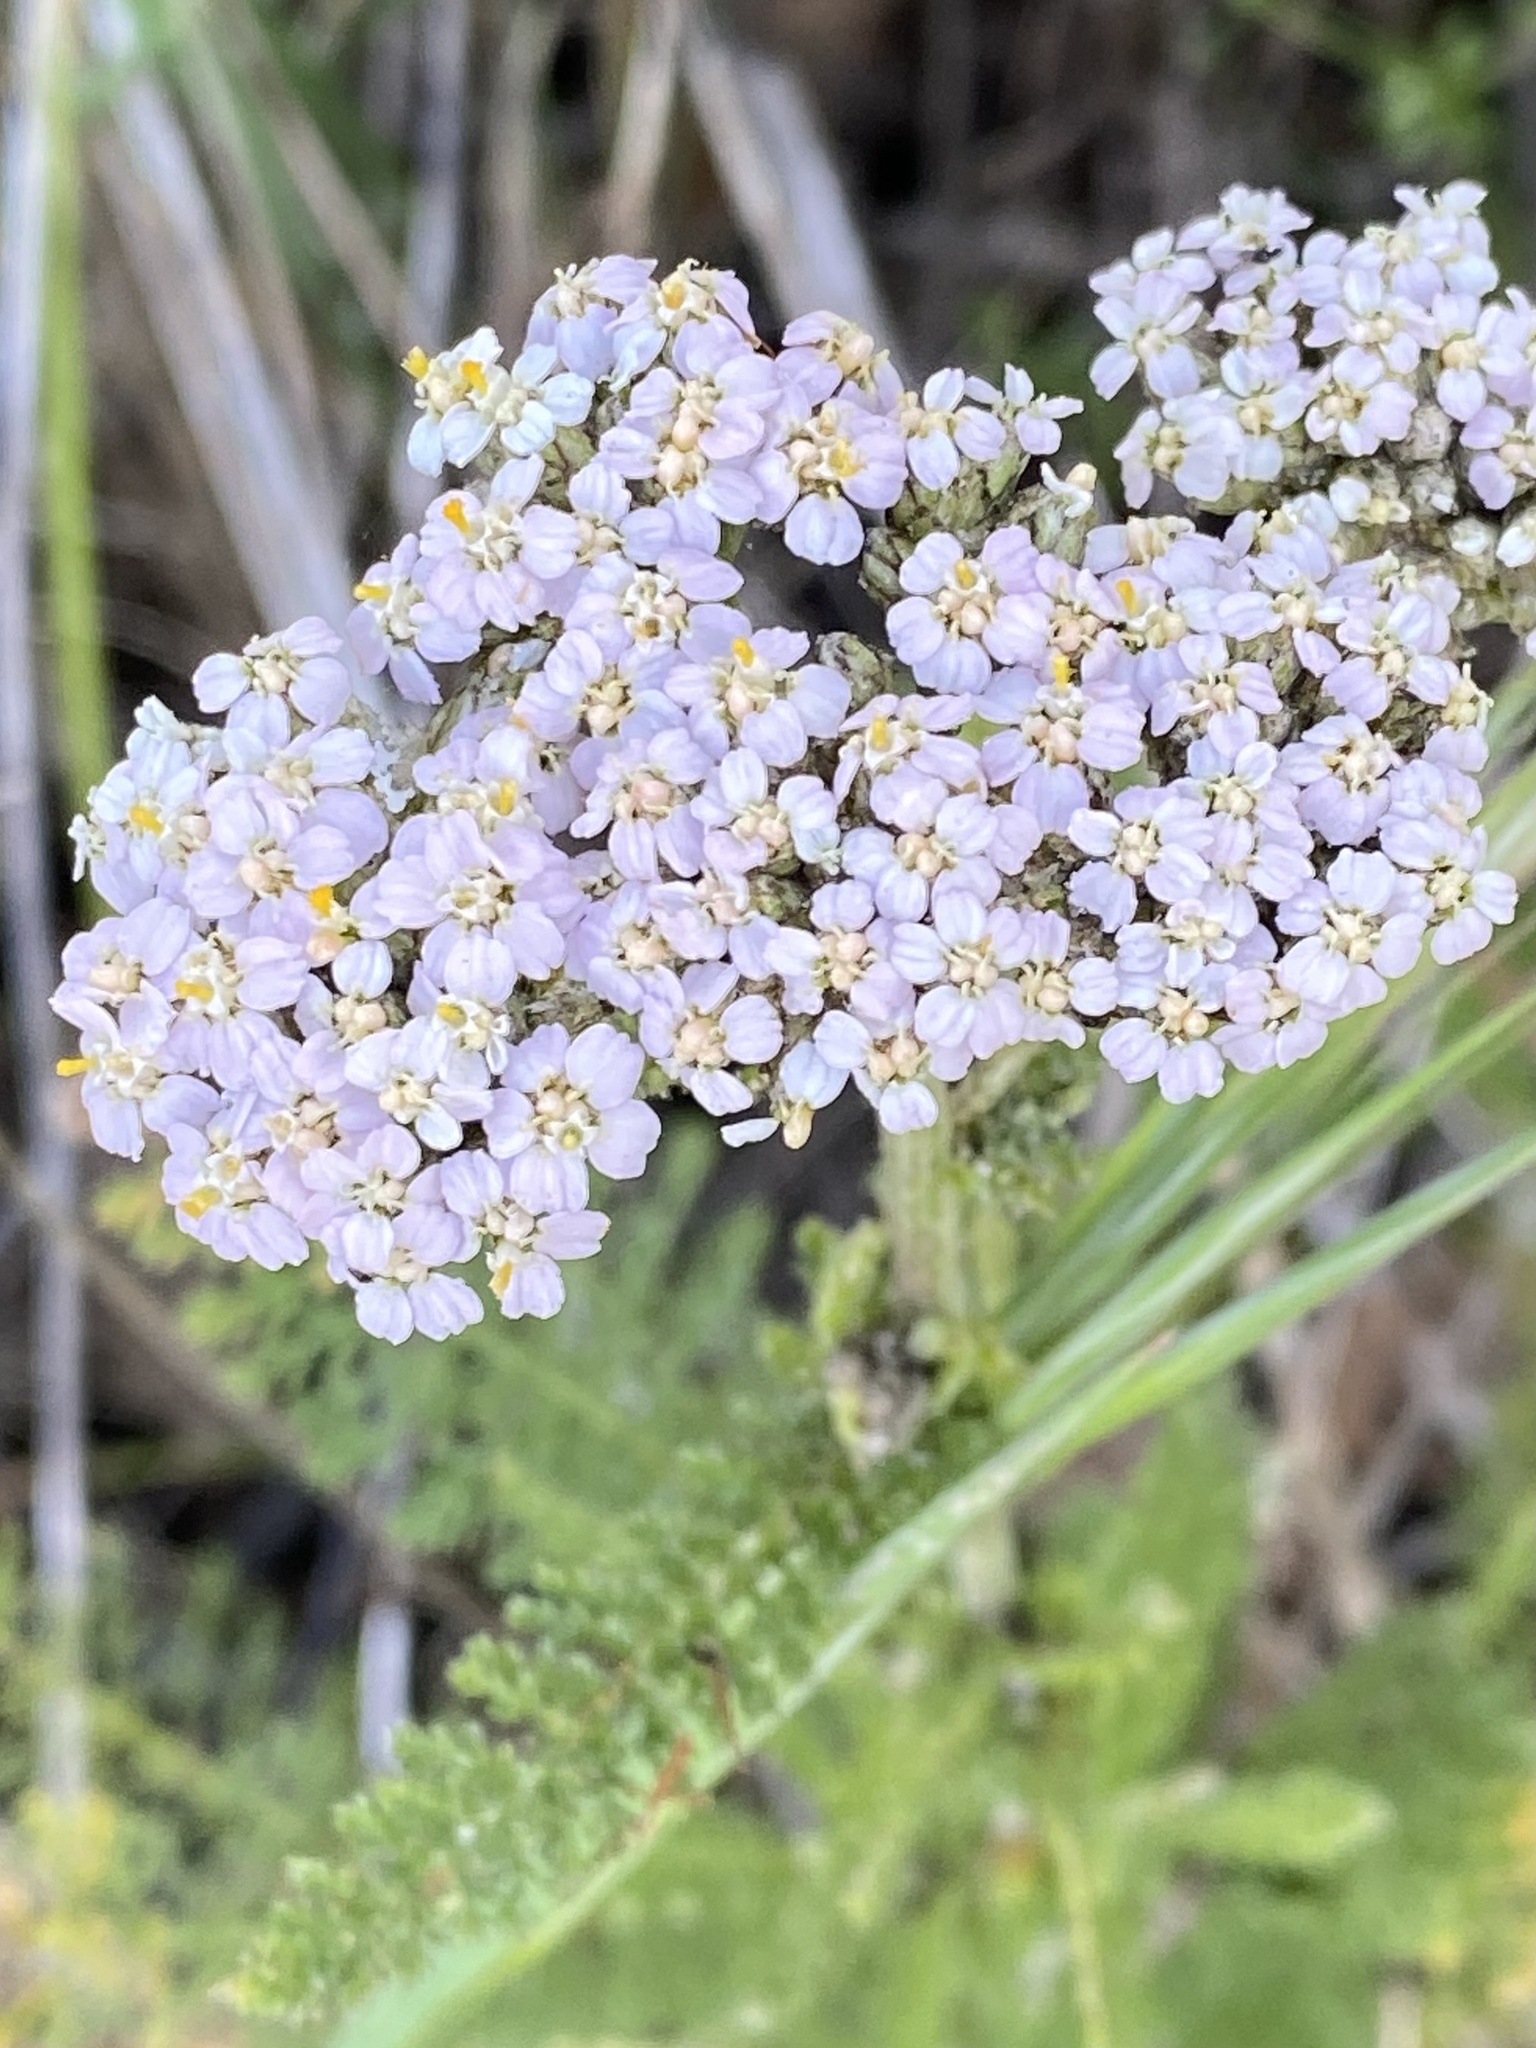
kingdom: Plantae
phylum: Tracheophyta
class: Magnoliopsida
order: Asterales
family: Asteraceae
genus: Achillea
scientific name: Achillea millefolium
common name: Yarrow
